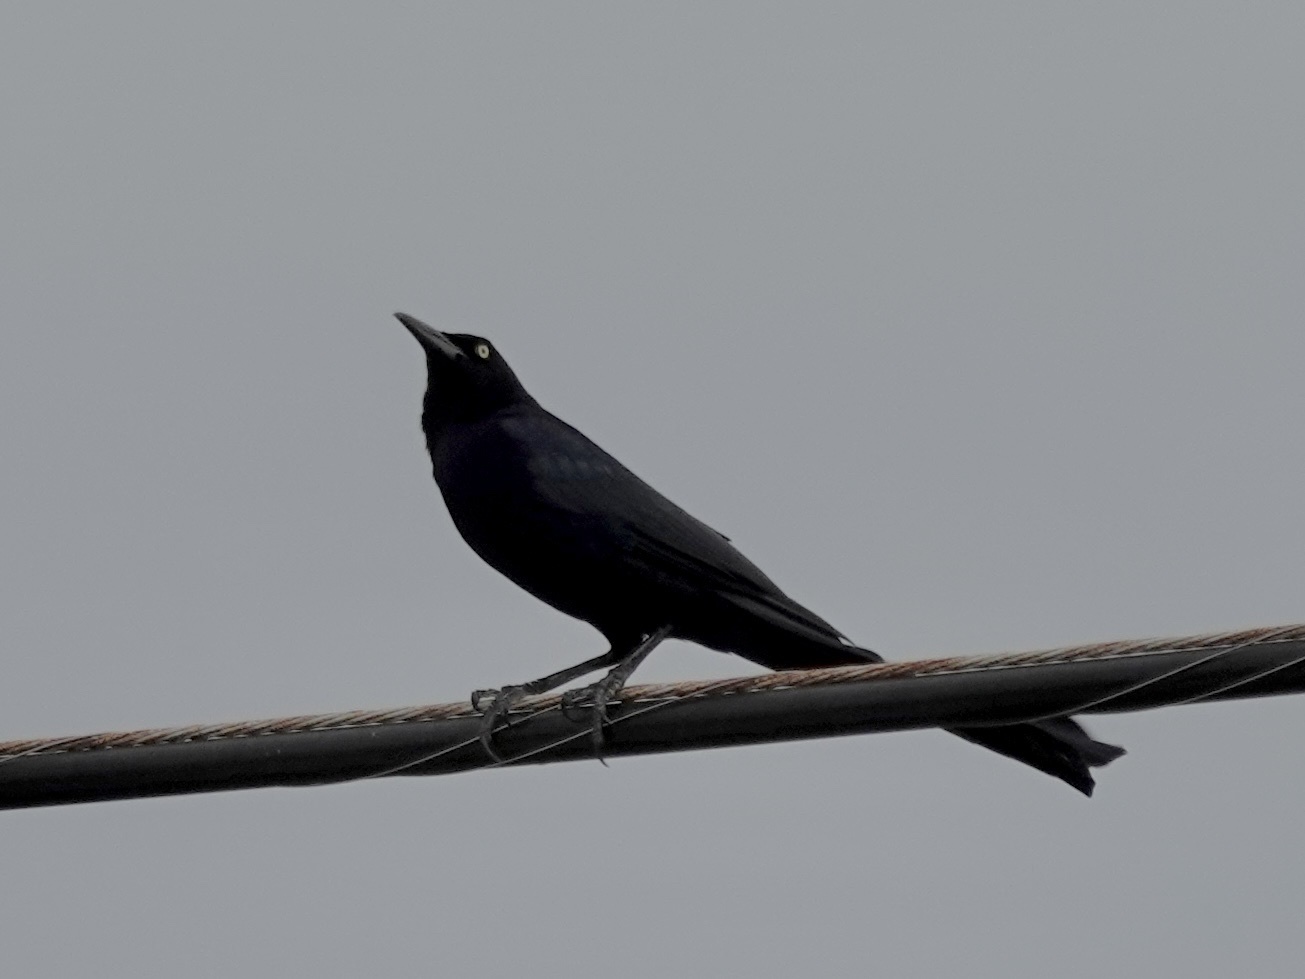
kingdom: Animalia
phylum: Chordata
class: Aves
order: Passeriformes
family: Icteridae
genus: Quiscalus
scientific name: Quiscalus mexicanus
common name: Great-tailed grackle
